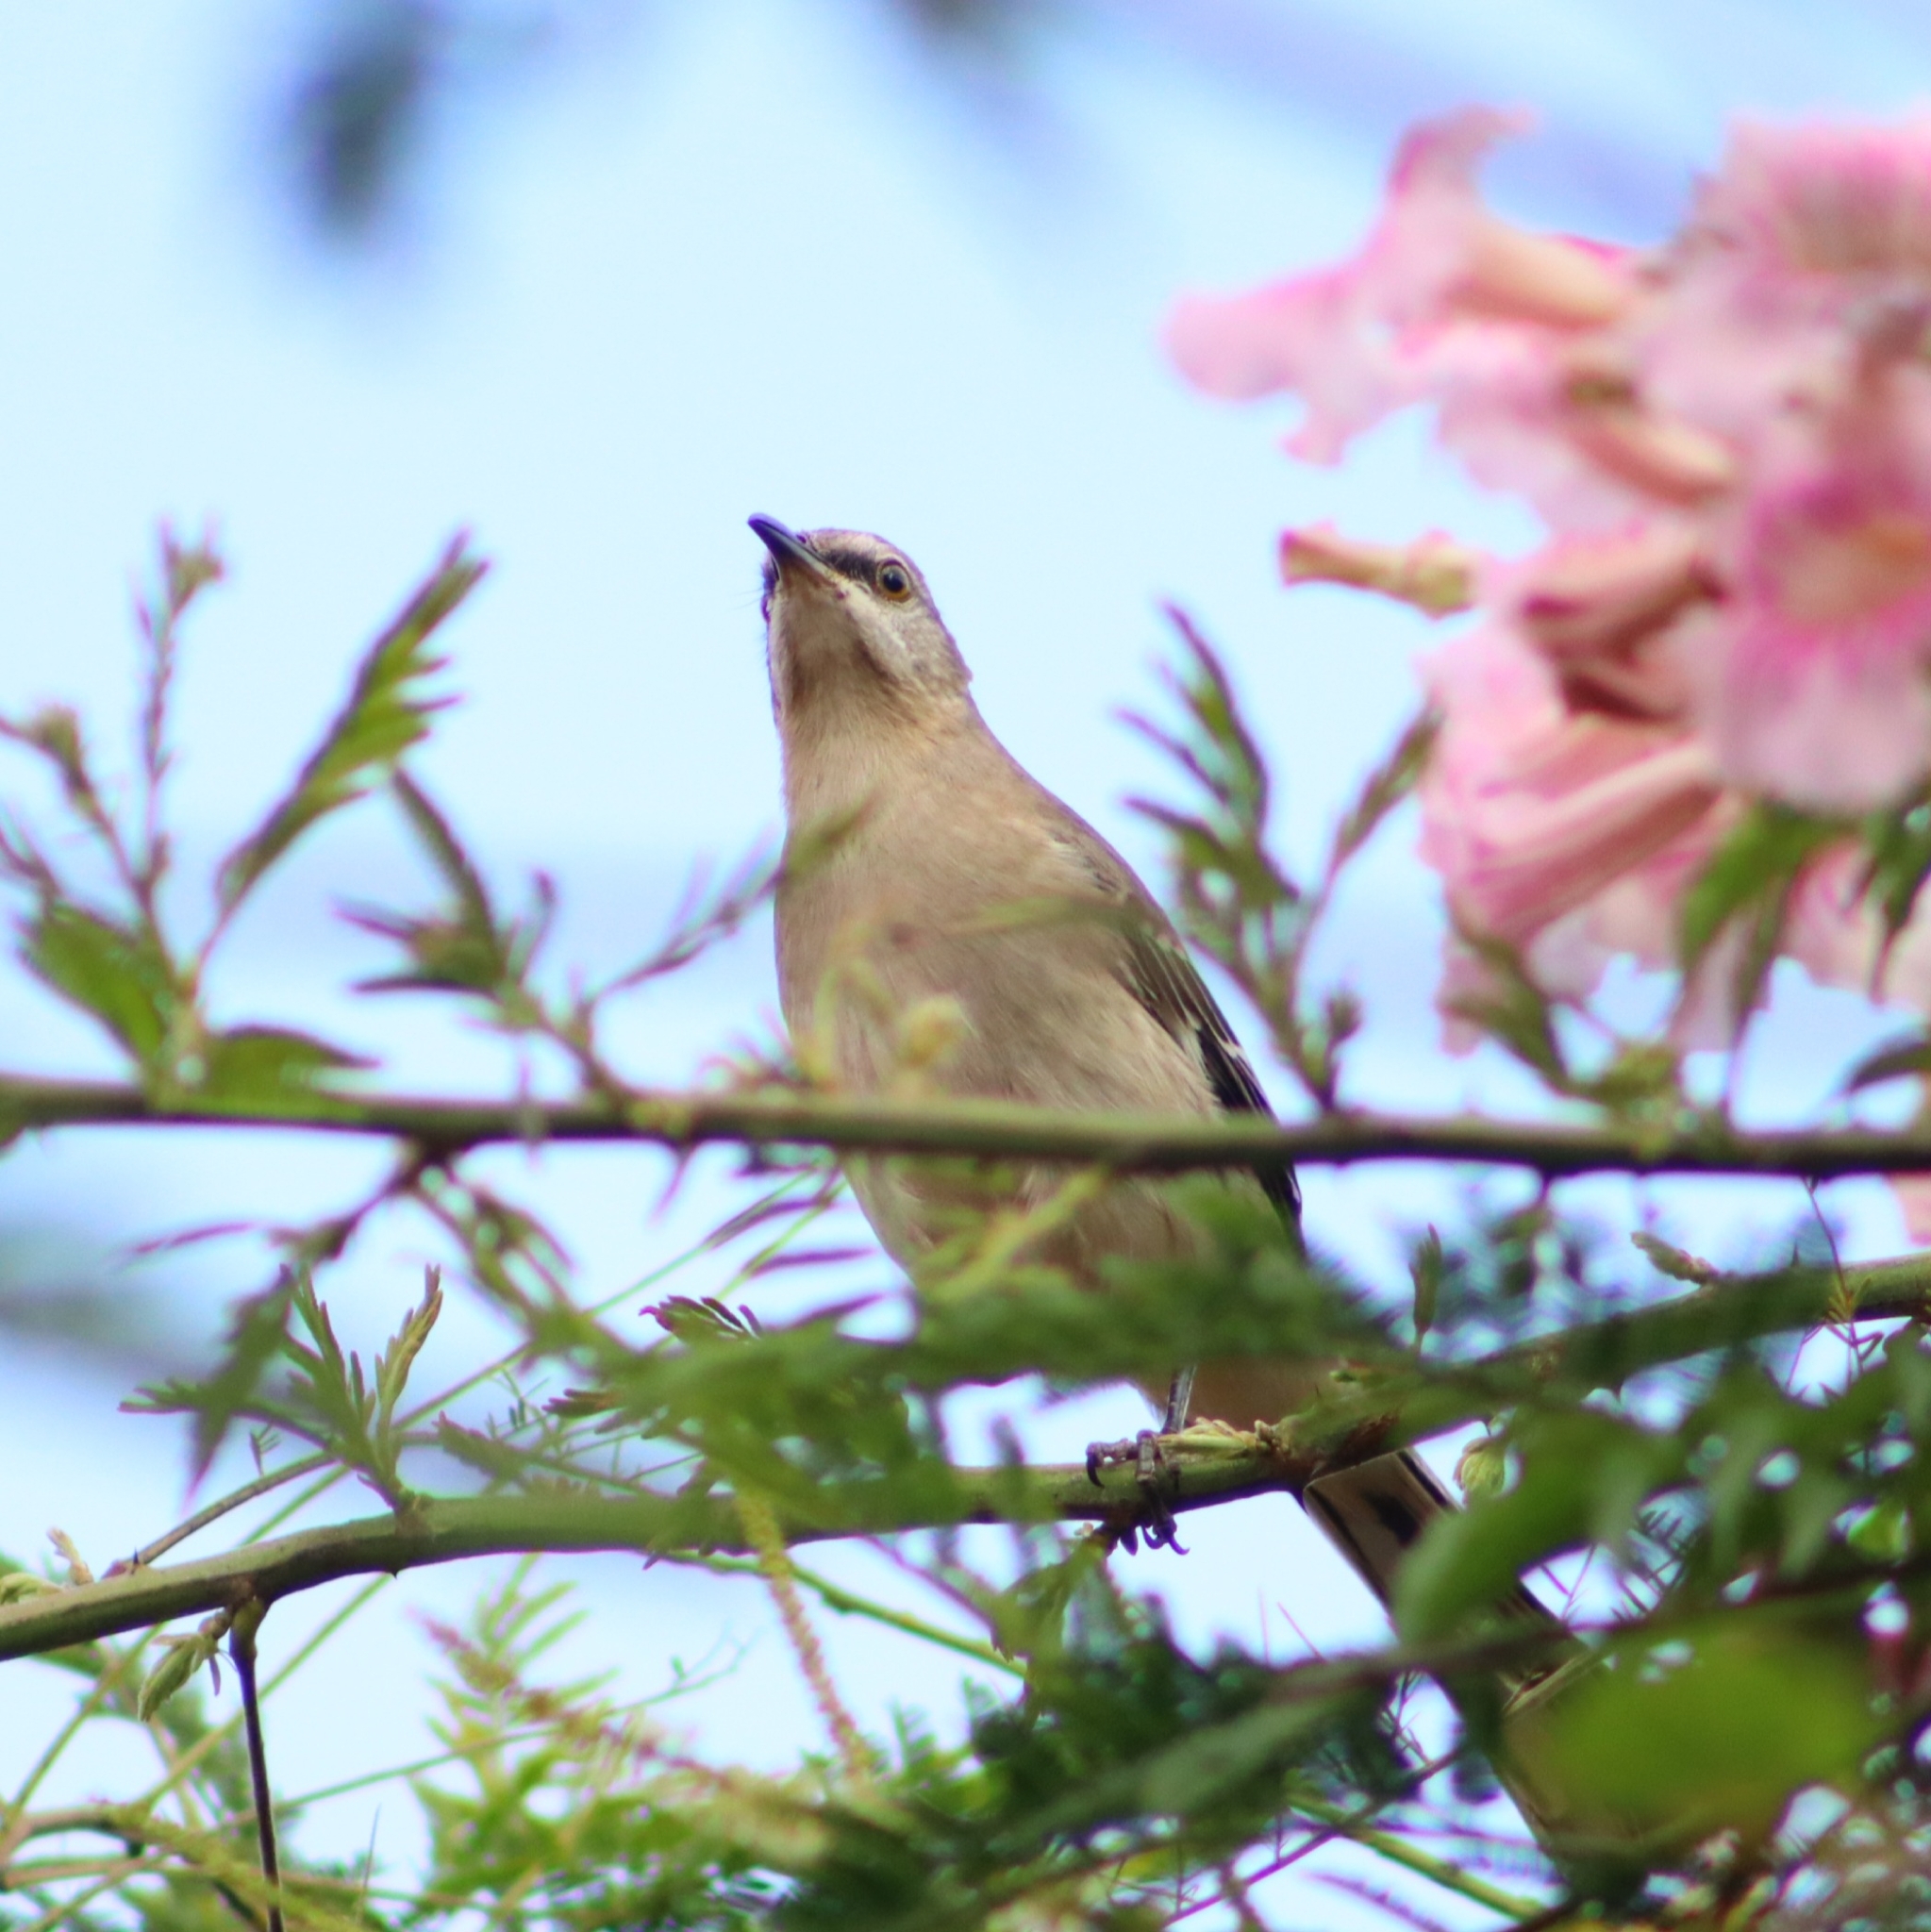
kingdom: Animalia
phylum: Chordata
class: Aves
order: Passeriformes
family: Mimidae
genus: Mimus
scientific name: Mimus polyglottos
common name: Northern mockingbird
